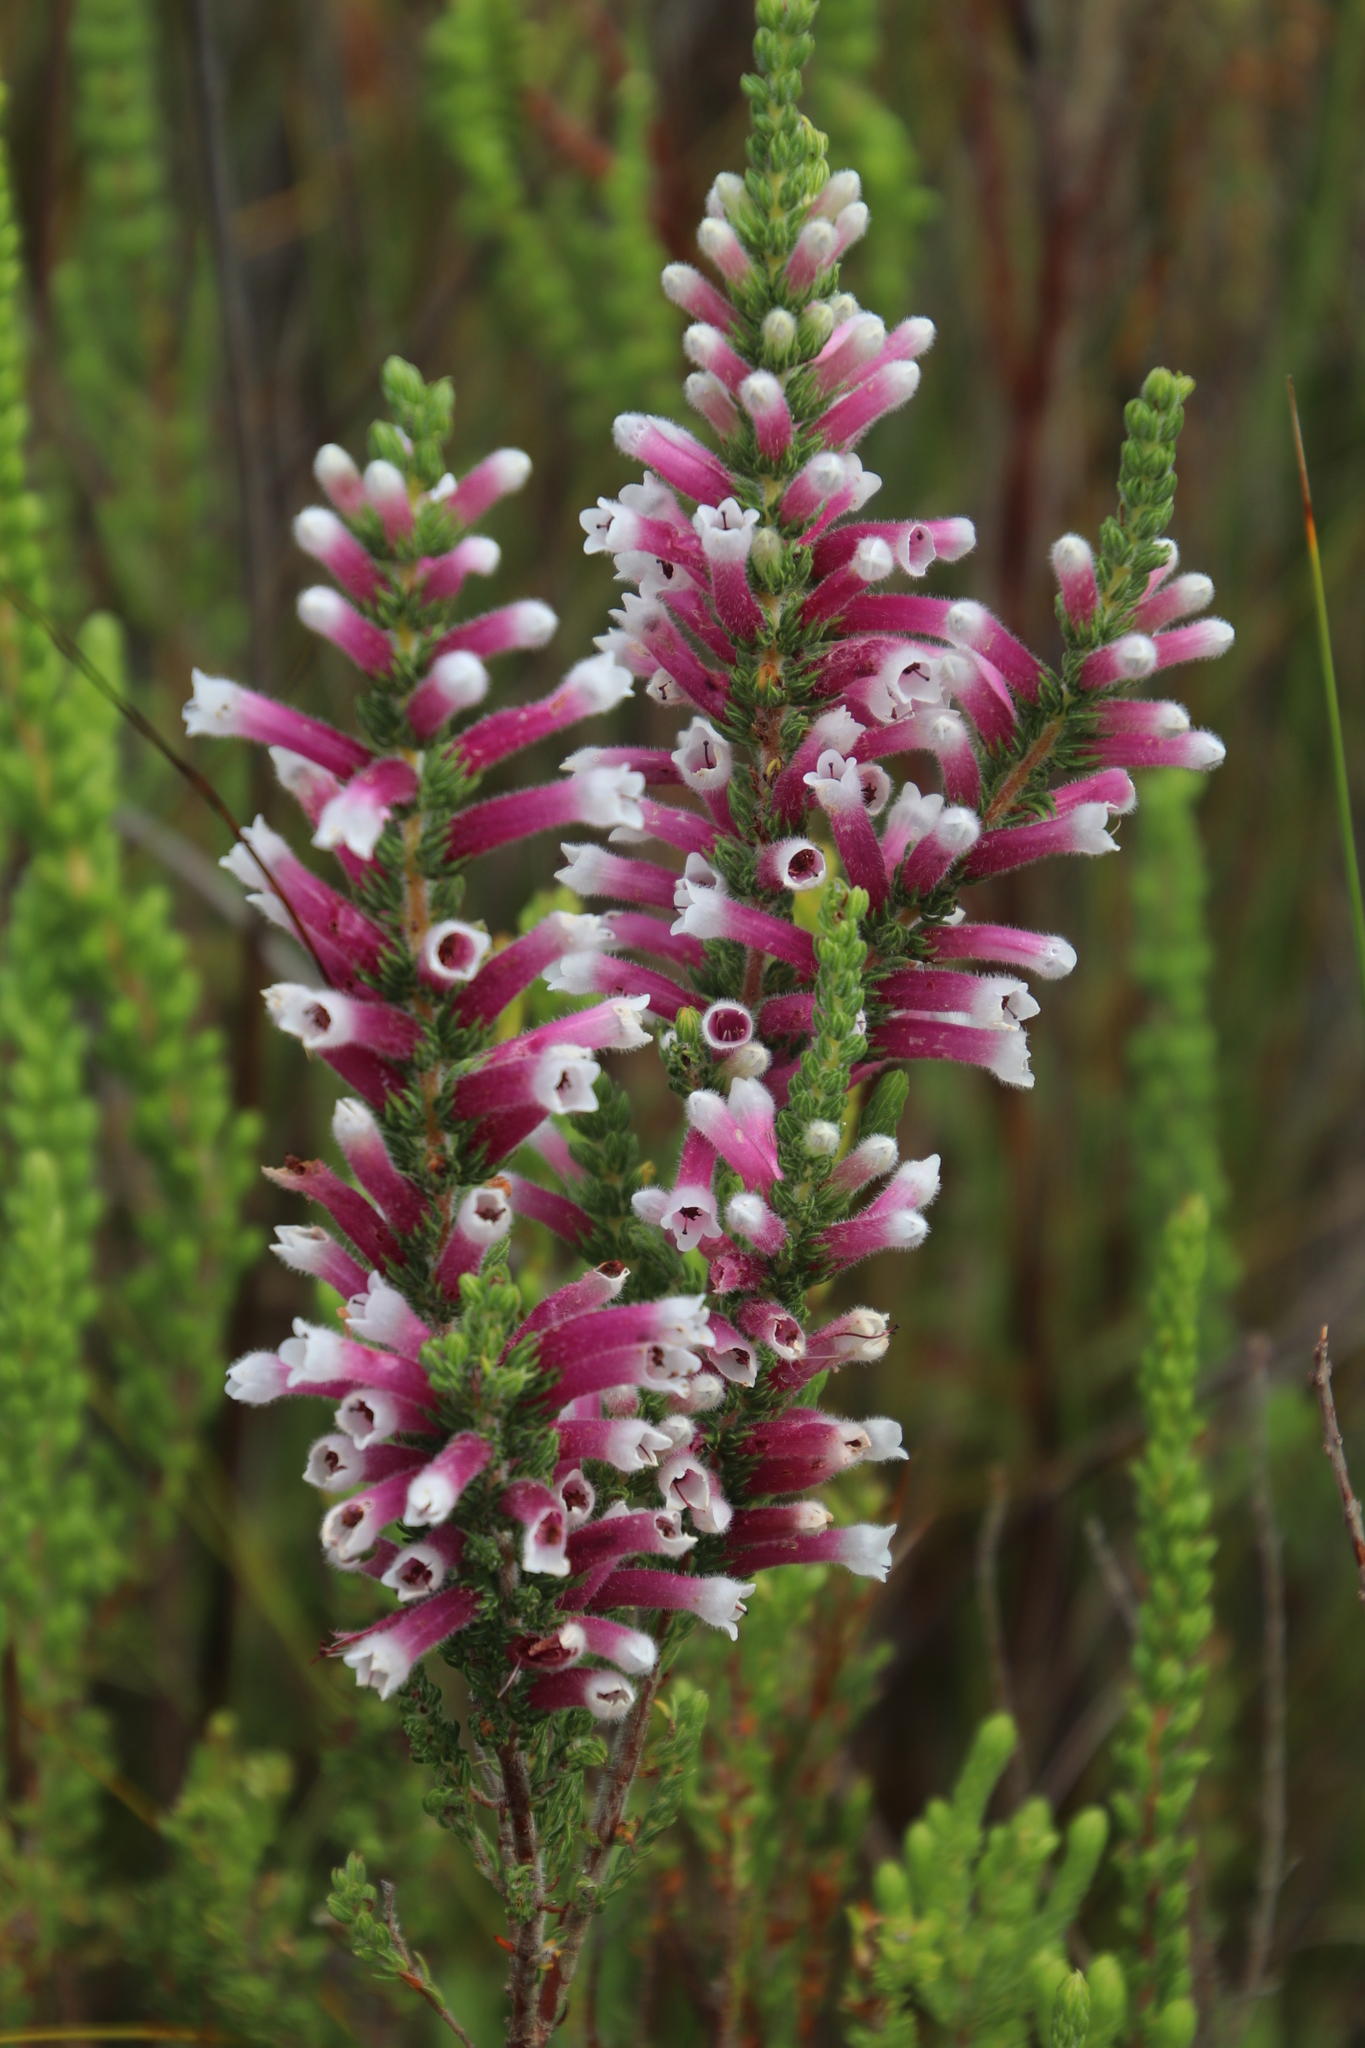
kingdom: Plantae
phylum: Tracheophyta
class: Magnoliopsida
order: Ericales
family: Ericaceae
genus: Erica
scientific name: Erica macowanii
